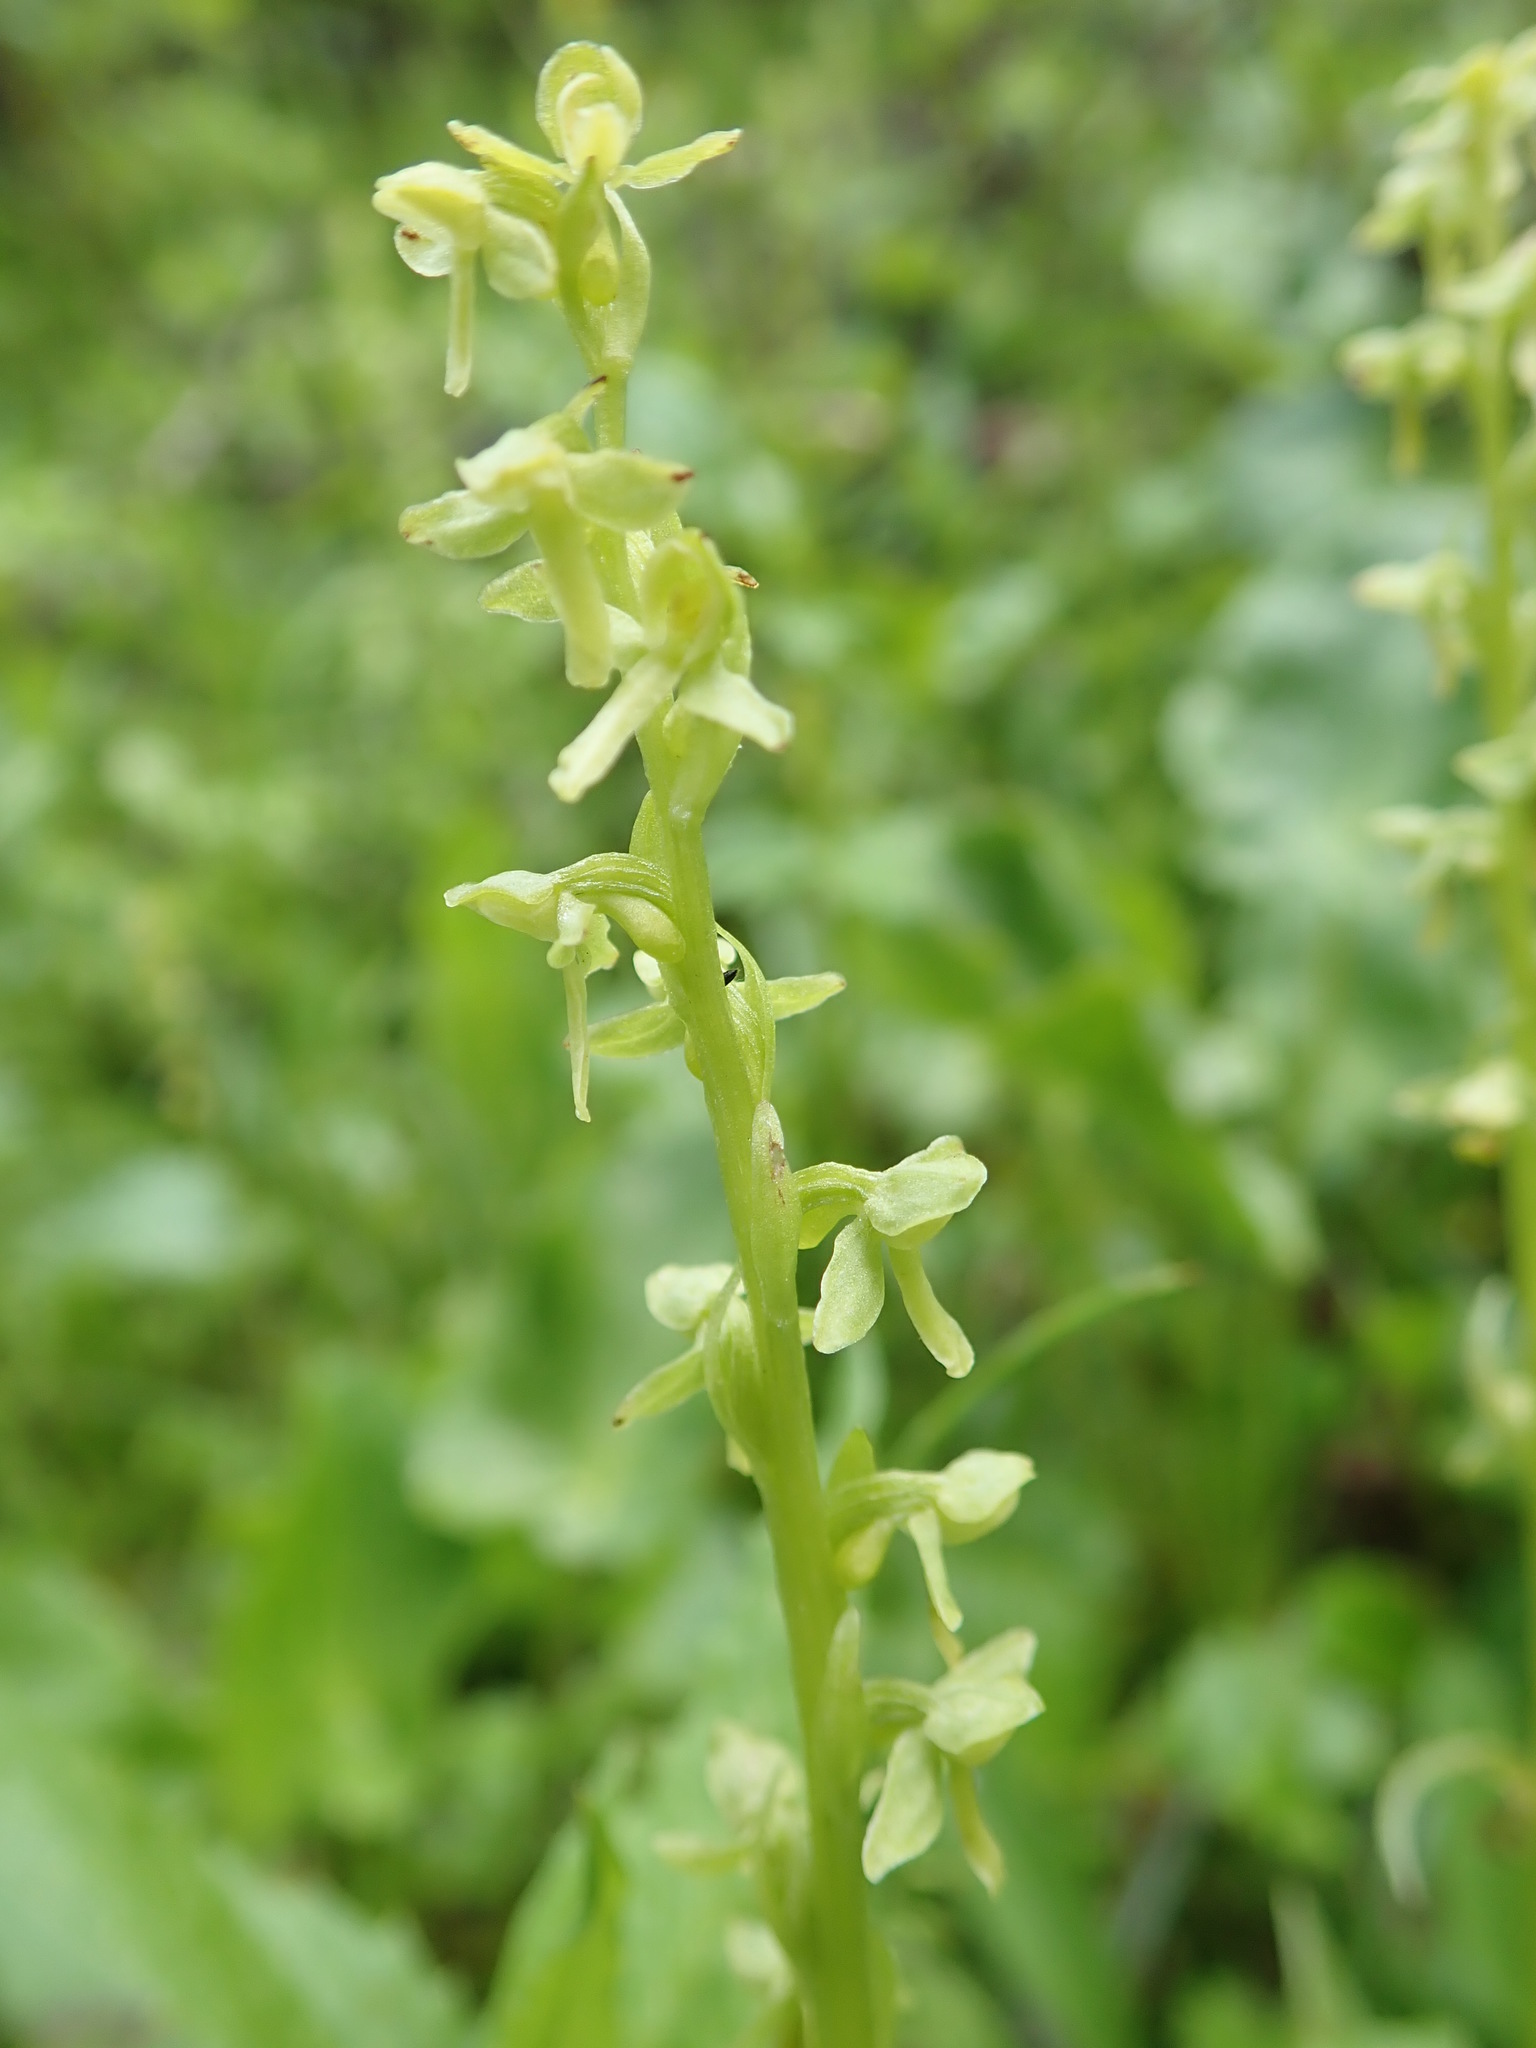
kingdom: Plantae
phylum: Tracheophyta
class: Liliopsida
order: Asparagales
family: Orchidaceae
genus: Platanthera
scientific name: Platanthera stricta
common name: Slender bog orchid
